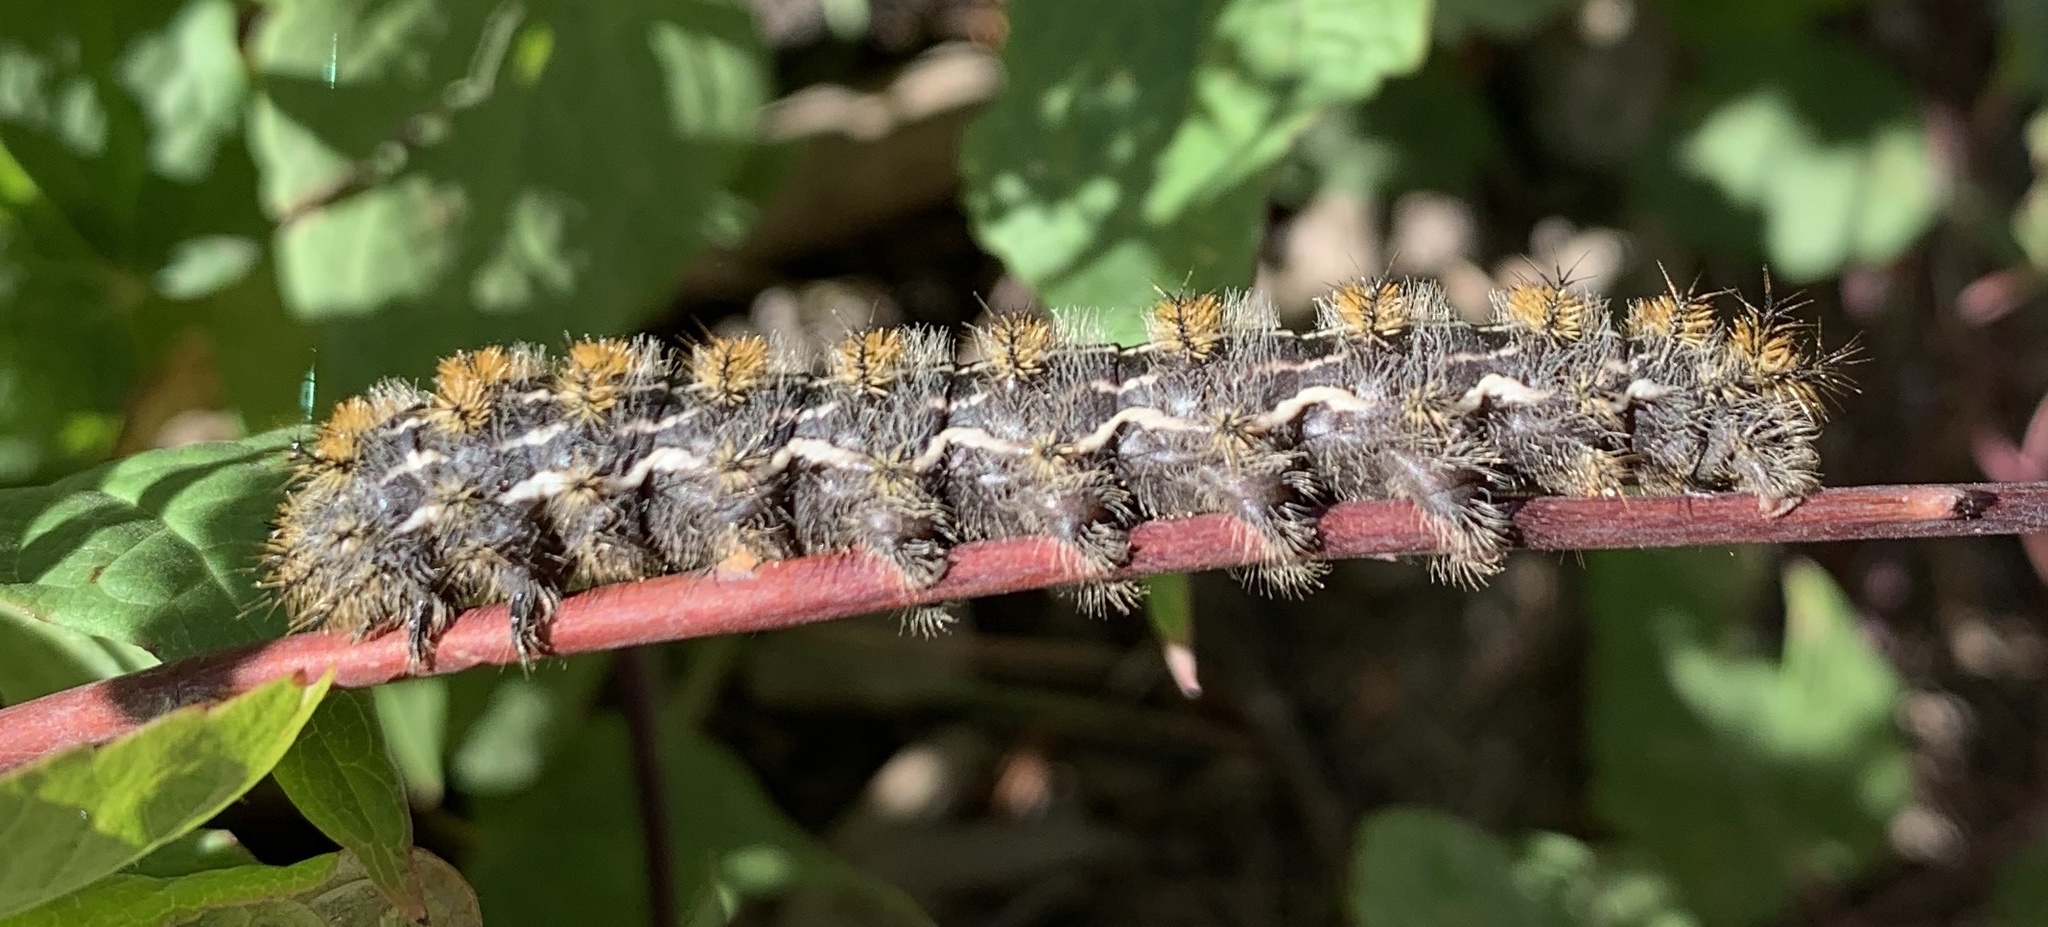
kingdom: Animalia
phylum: Arthropoda
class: Insecta
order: Lepidoptera
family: Saturniidae
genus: Hemileuca
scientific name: Hemileuca eglanterina
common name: Western sheepmoth
